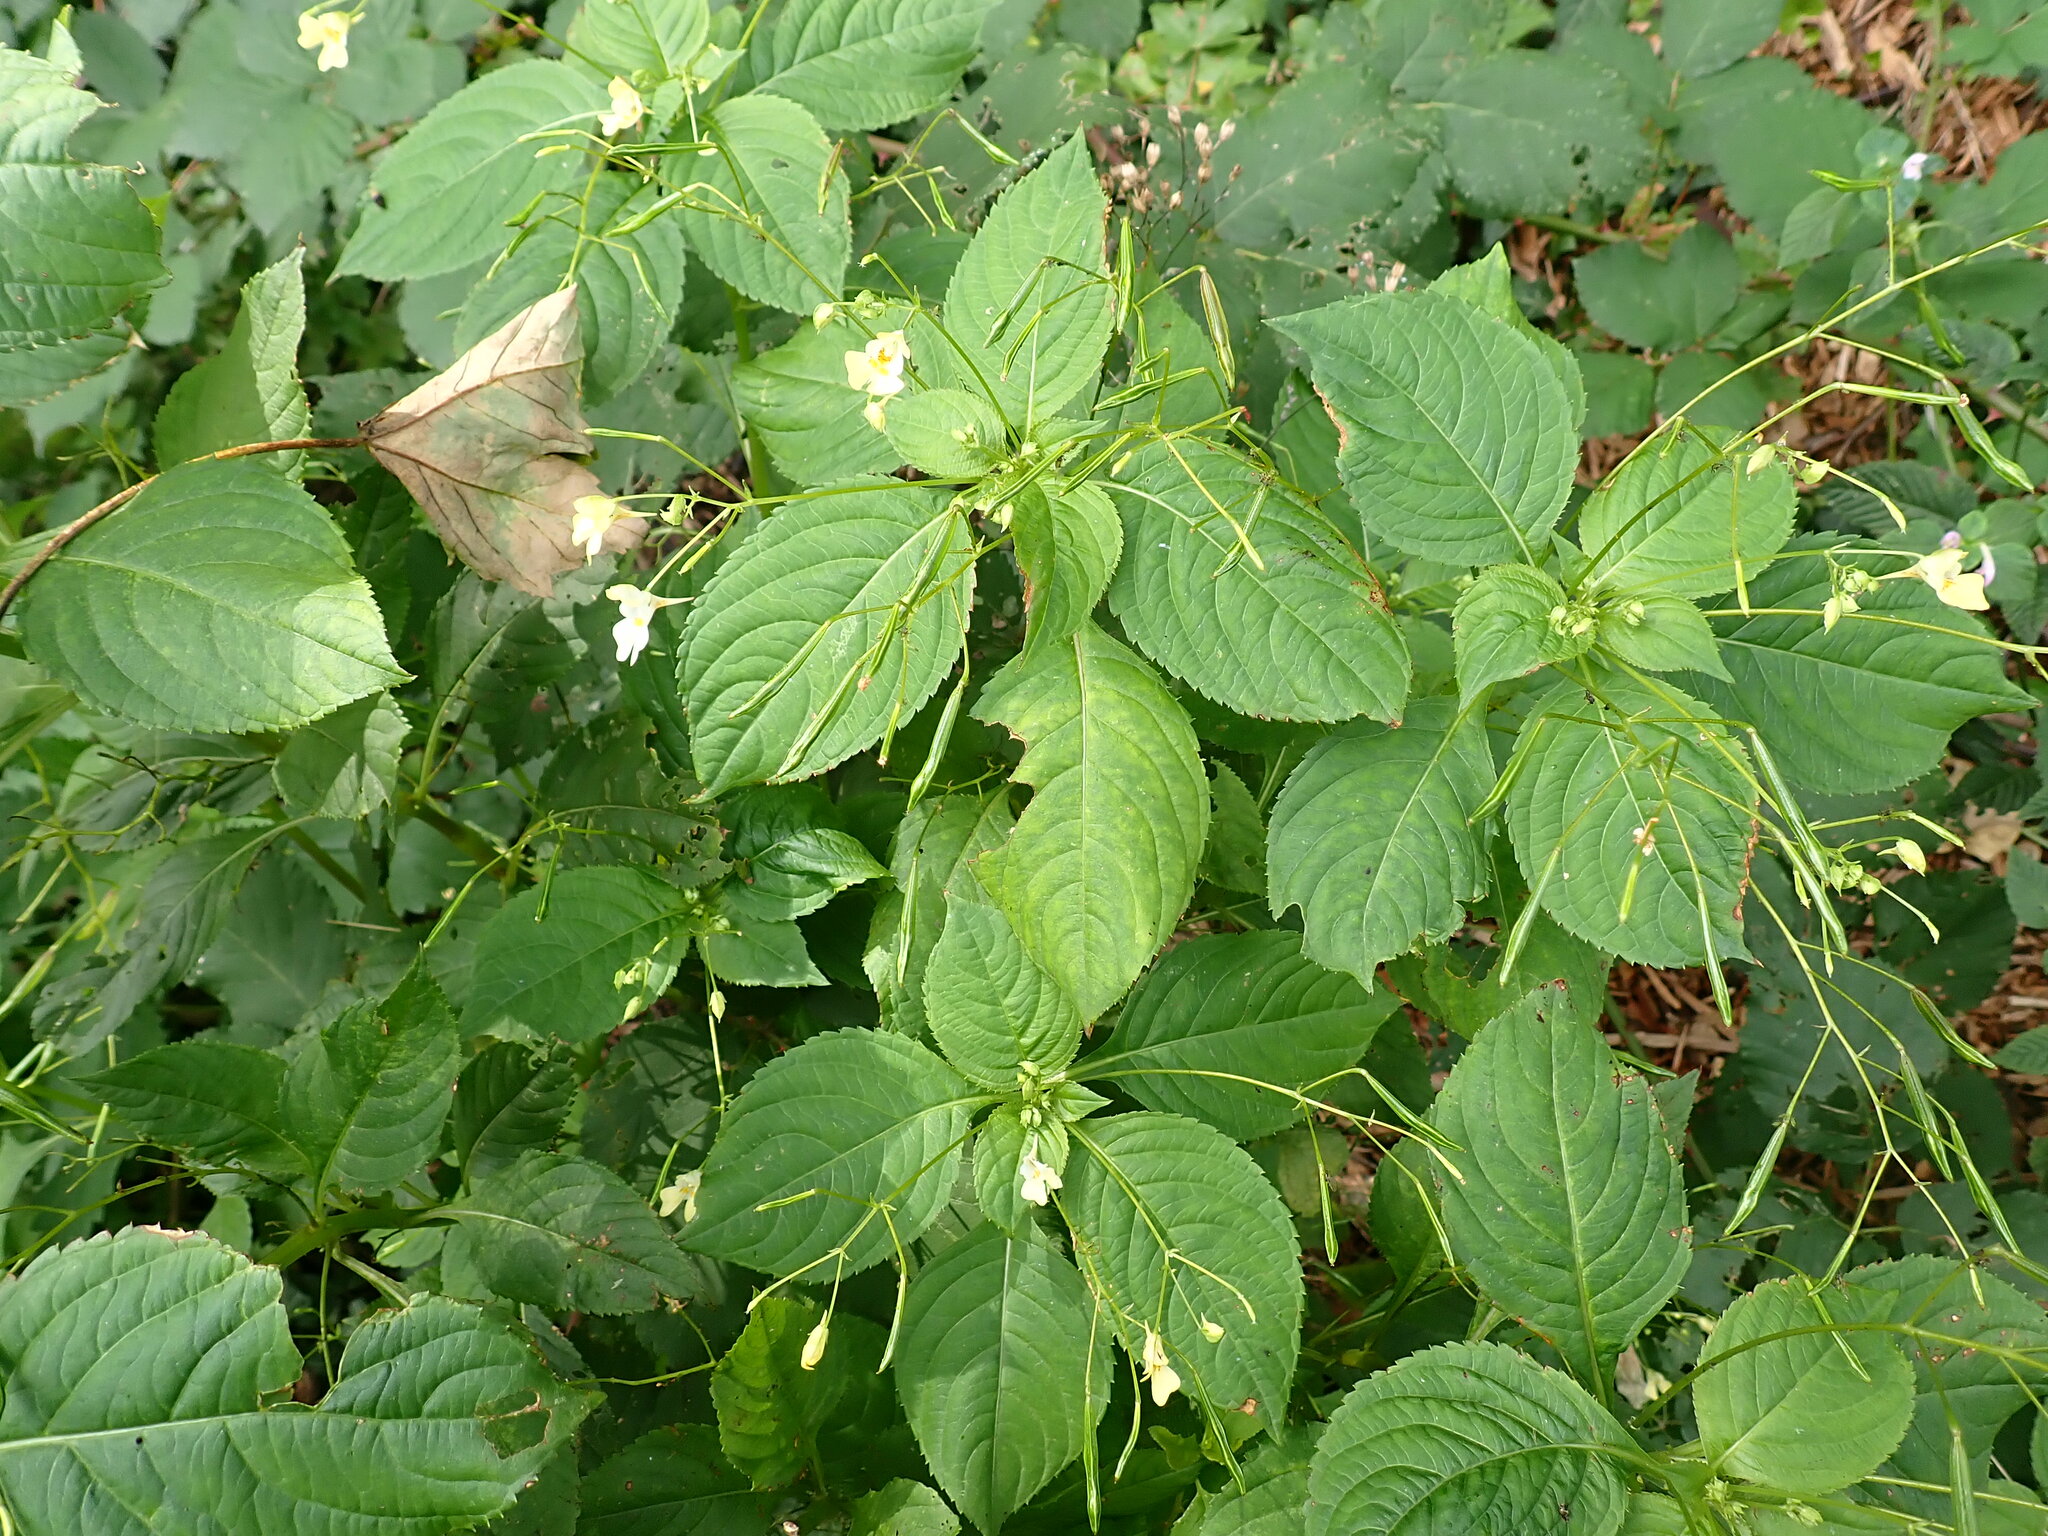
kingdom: Plantae
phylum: Tracheophyta
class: Magnoliopsida
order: Ericales
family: Balsaminaceae
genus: Impatiens
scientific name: Impatiens parviflora
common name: Small balsam
